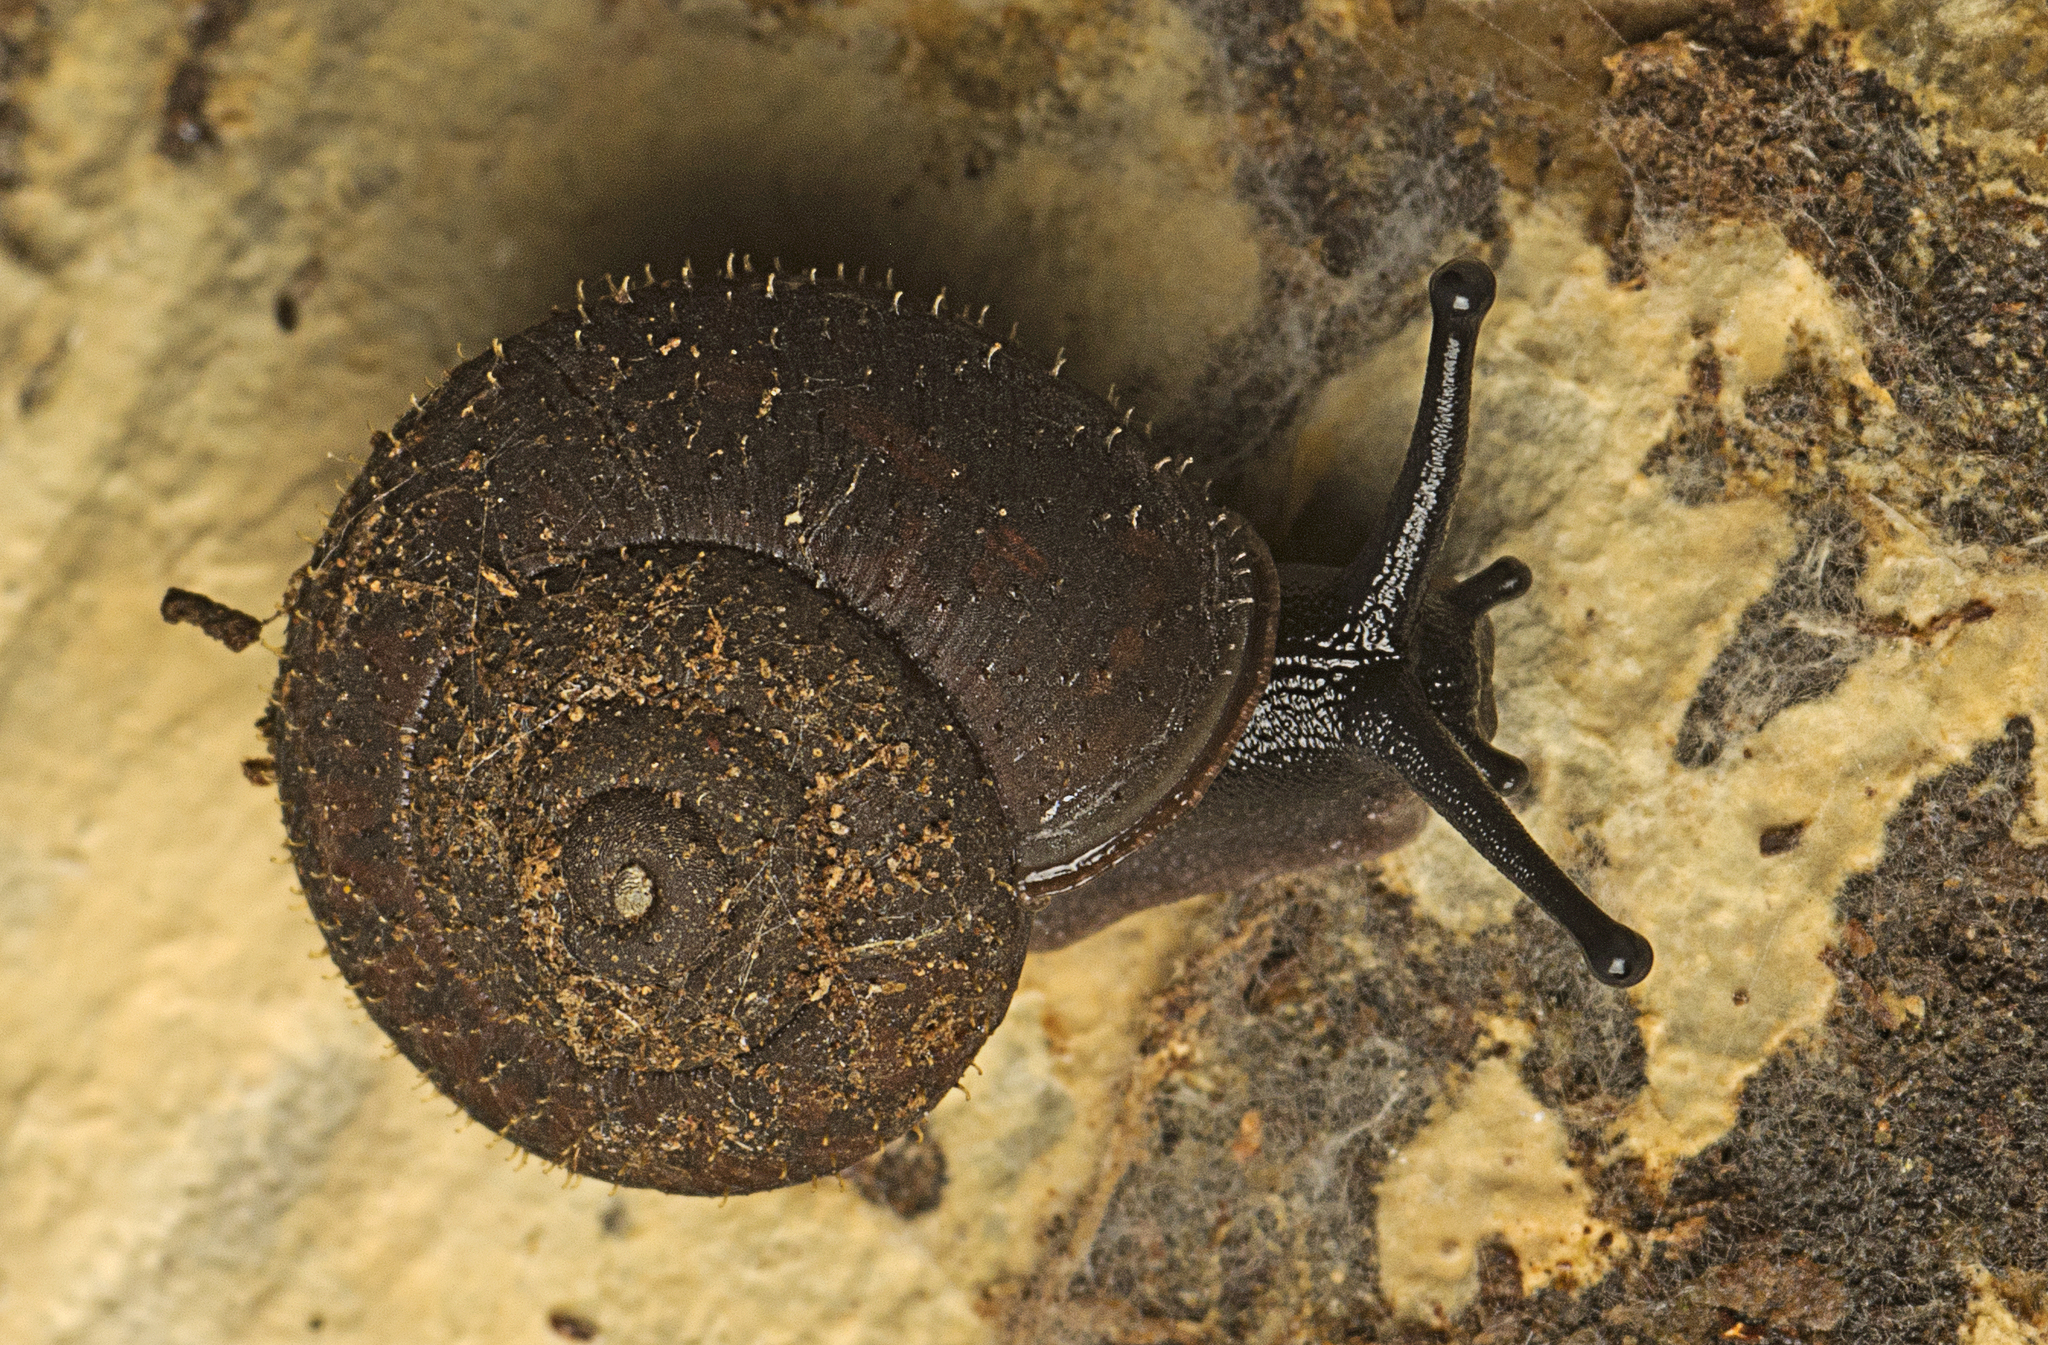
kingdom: Animalia
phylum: Mollusca
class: Gastropoda
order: Stylommatophora
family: Camaenidae
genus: Mussonena
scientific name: Mussonena boonah
